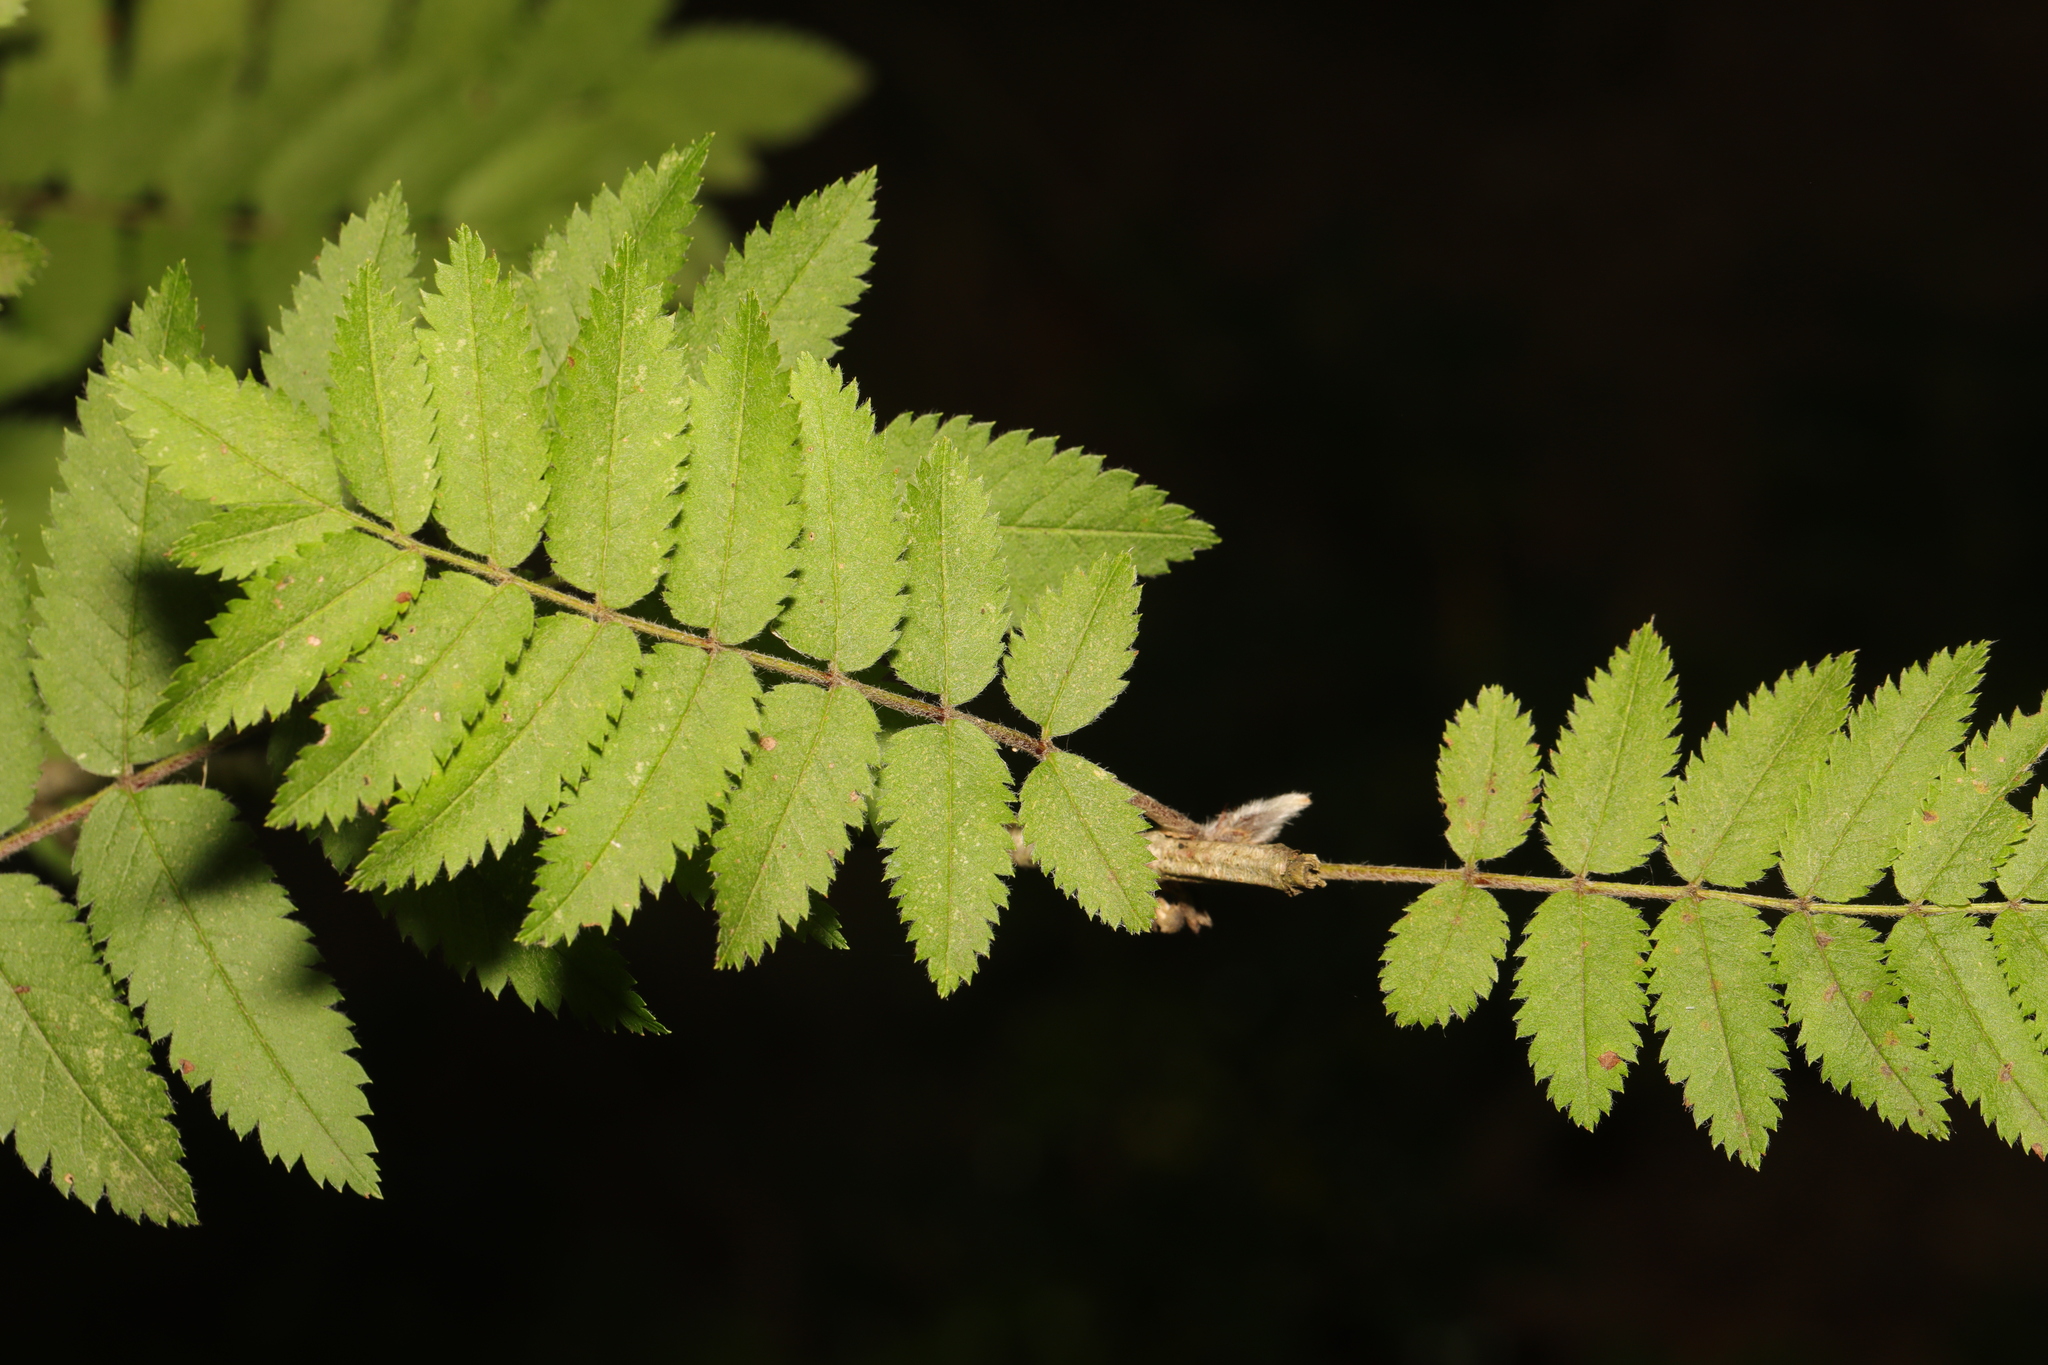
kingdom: Plantae
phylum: Tracheophyta
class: Magnoliopsida
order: Rosales
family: Rosaceae
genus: Sorbus
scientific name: Sorbus aucuparia
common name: Rowan
